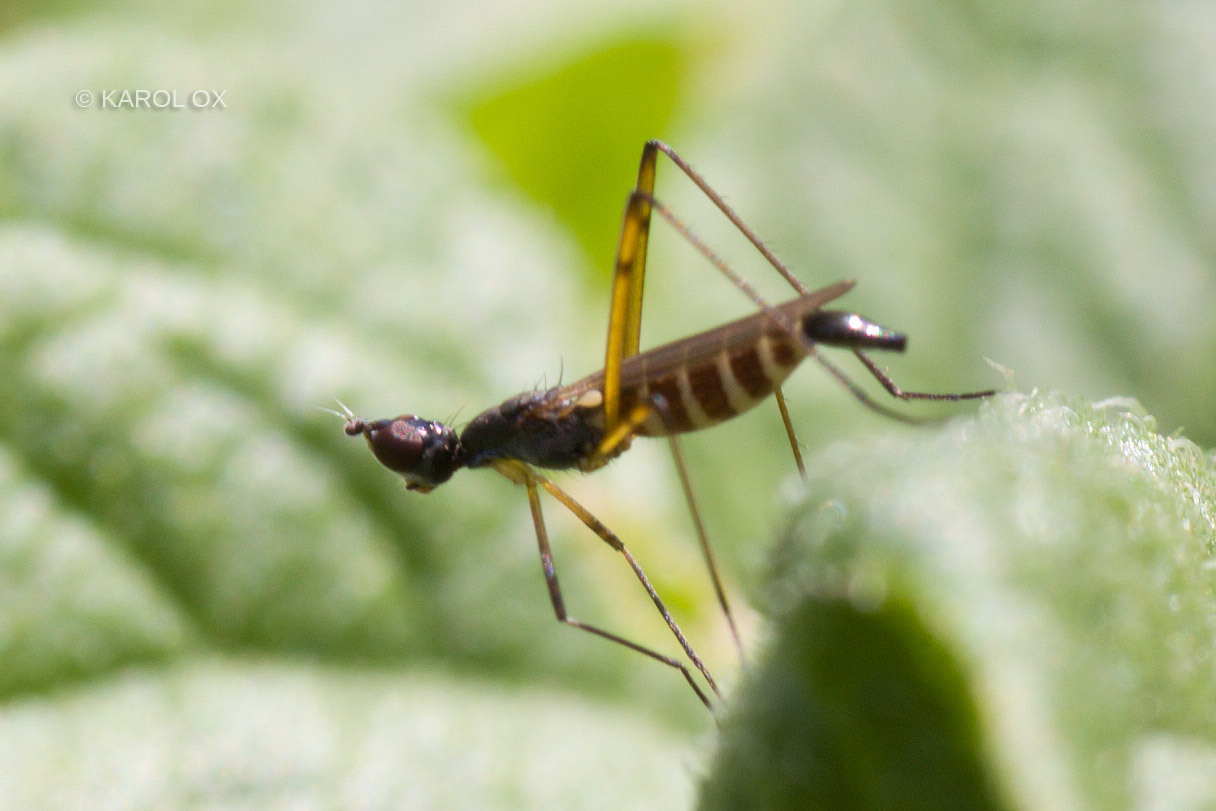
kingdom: Animalia
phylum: Arthropoda
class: Insecta
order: Diptera
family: Micropezidae
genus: Micropeza
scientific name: Micropeza corrigiolata
